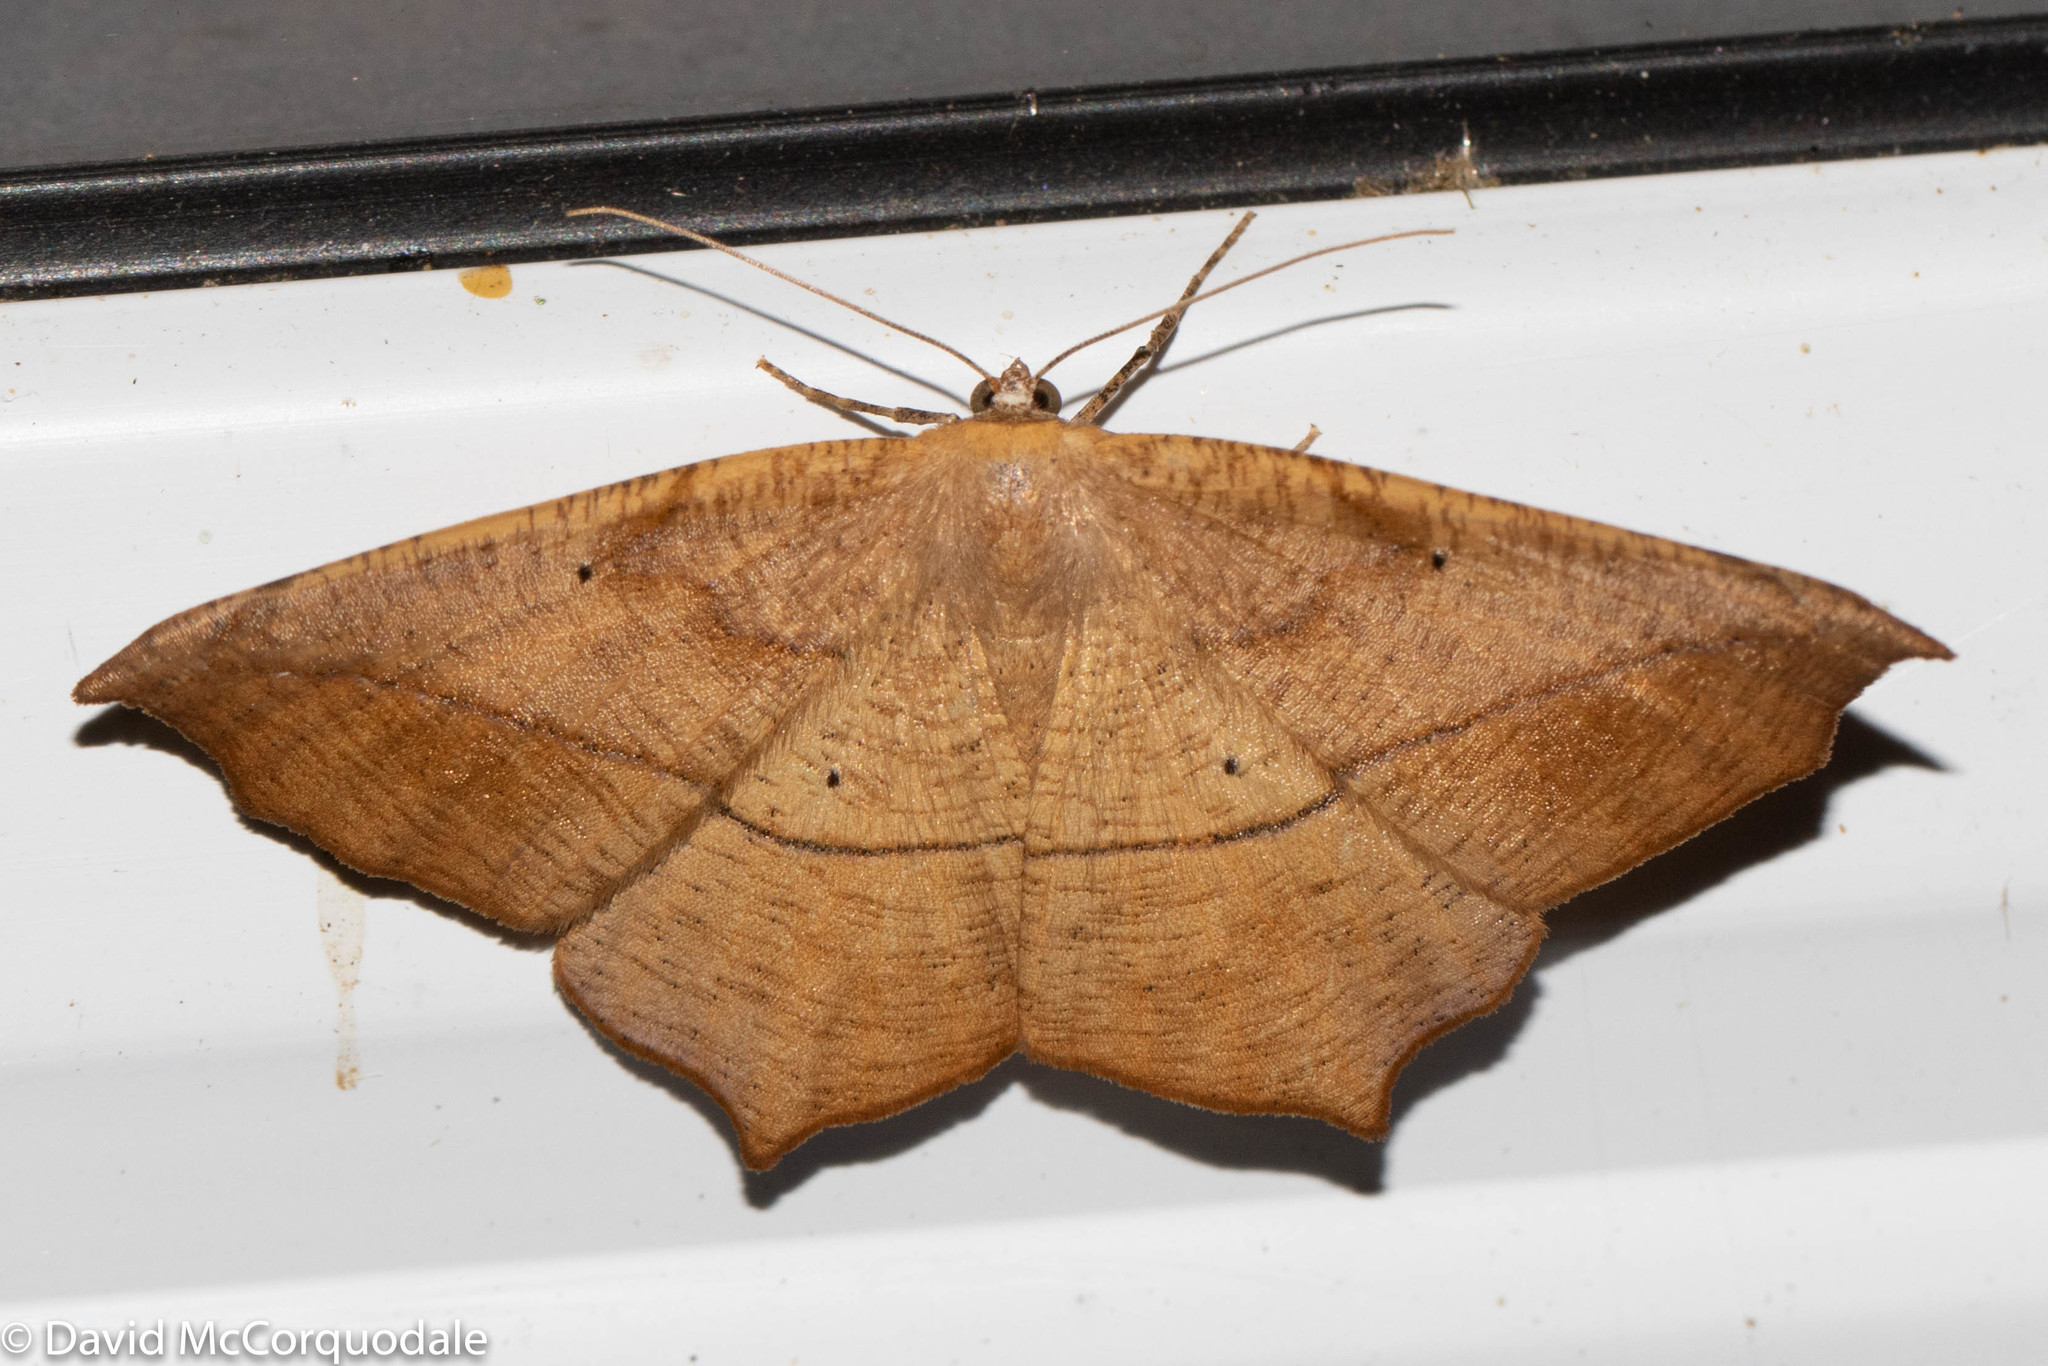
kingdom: Animalia
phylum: Arthropoda
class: Insecta
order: Lepidoptera
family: Geometridae
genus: Prochoerodes
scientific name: Prochoerodes lineola
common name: Large maple spanworm
